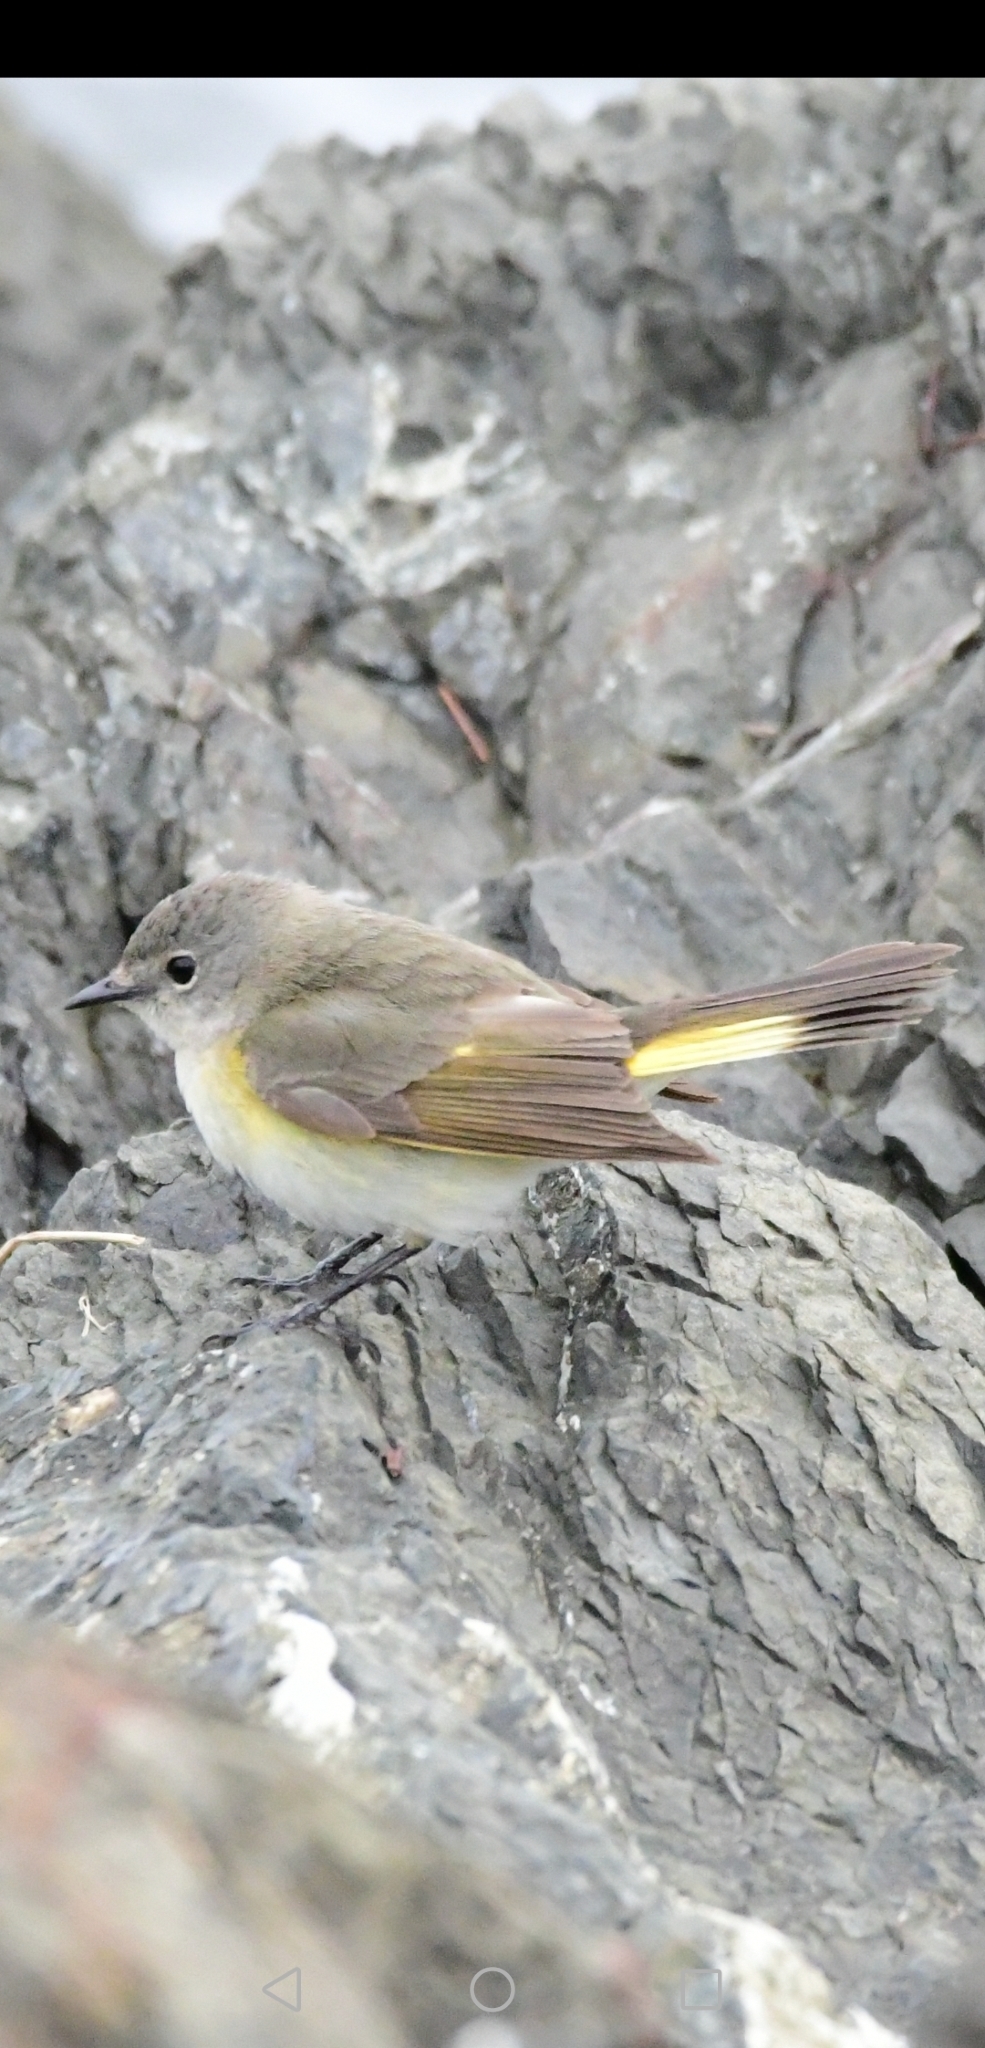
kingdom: Animalia
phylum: Chordata
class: Aves
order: Passeriformes
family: Parulidae
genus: Setophaga
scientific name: Setophaga ruticilla
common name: American redstart
